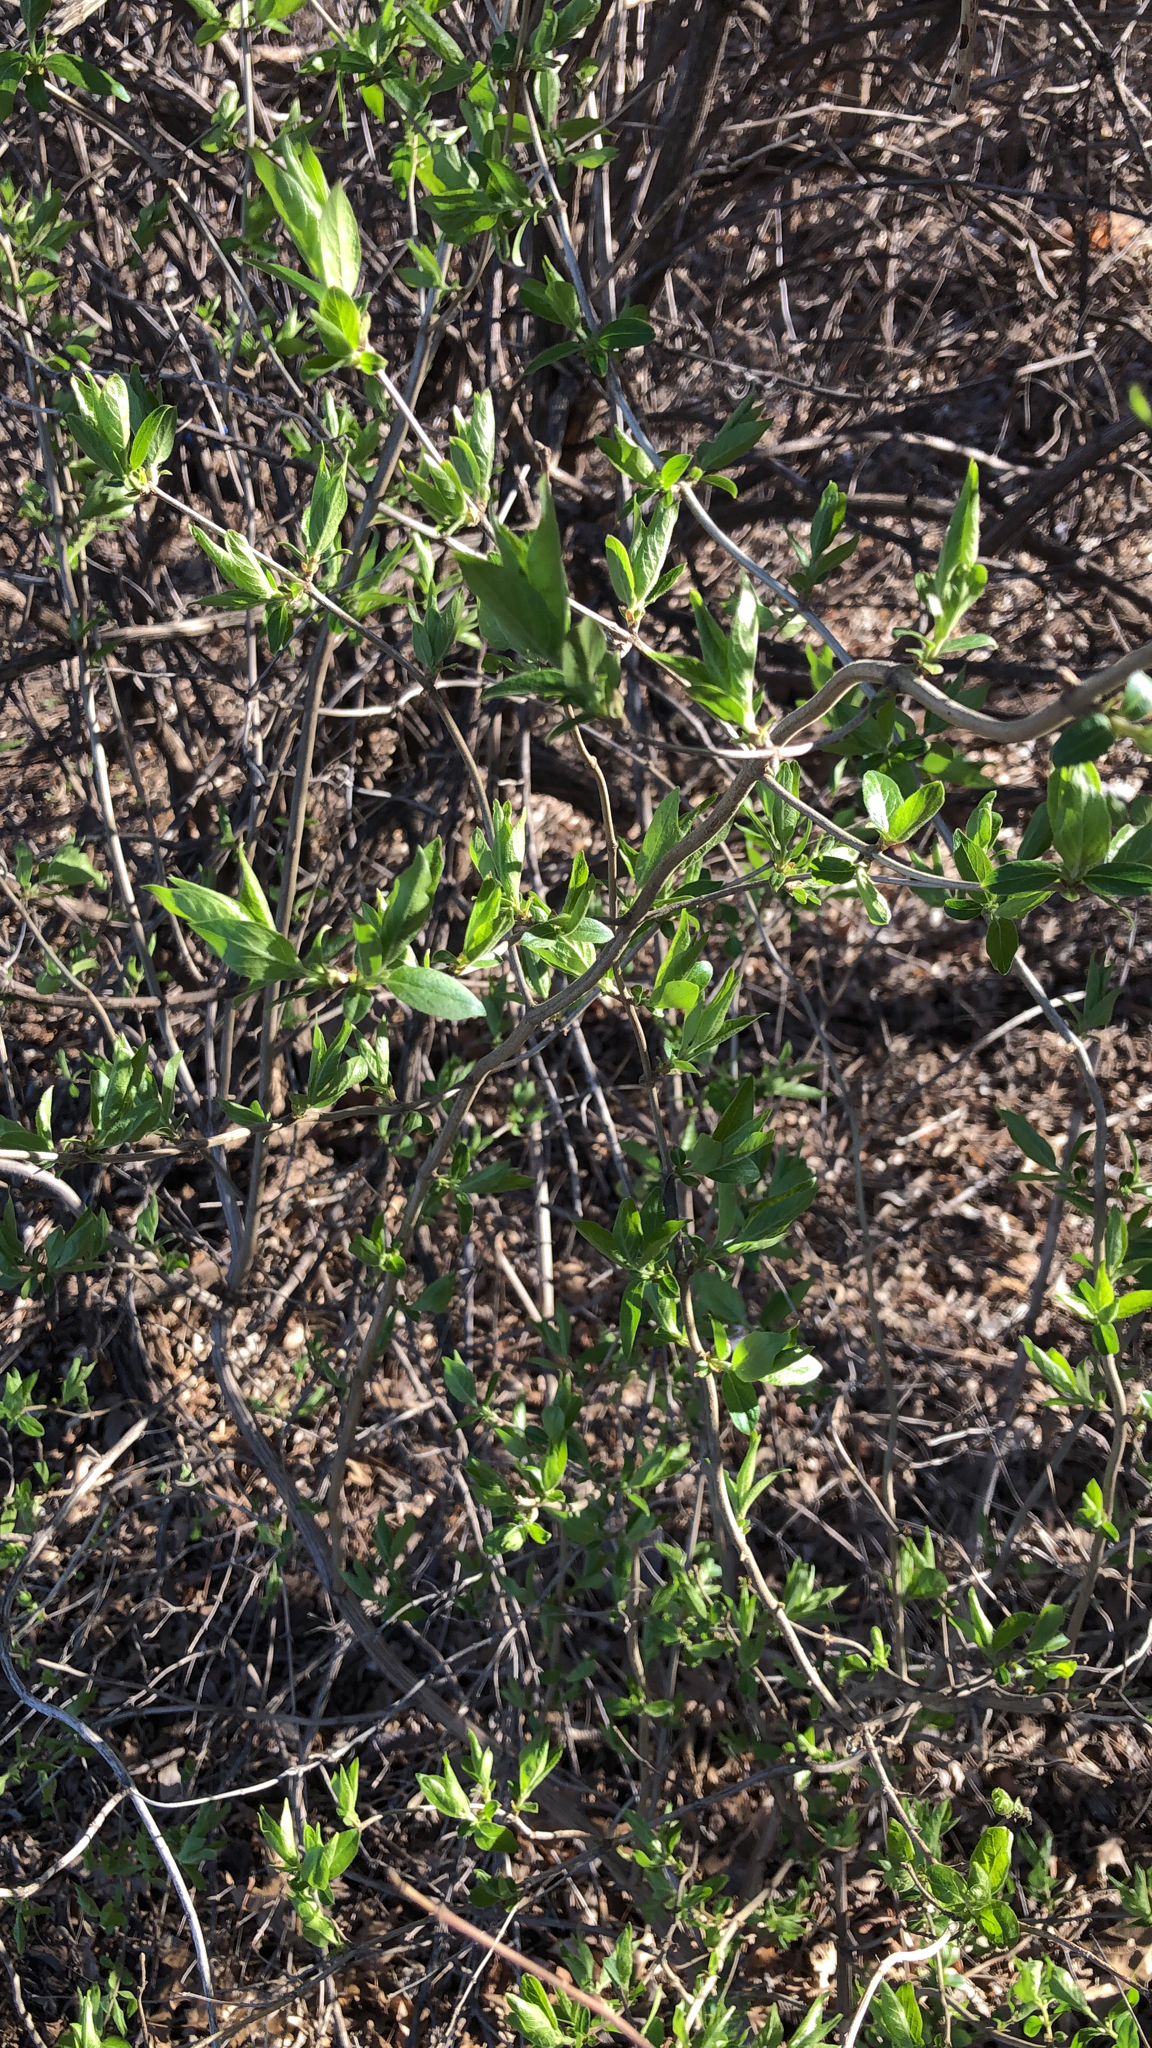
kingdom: Plantae
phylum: Tracheophyta
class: Magnoliopsida
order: Dipsacales
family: Caprifoliaceae
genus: Lonicera
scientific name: Lonicera japonica
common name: Japanese honeysuckle
